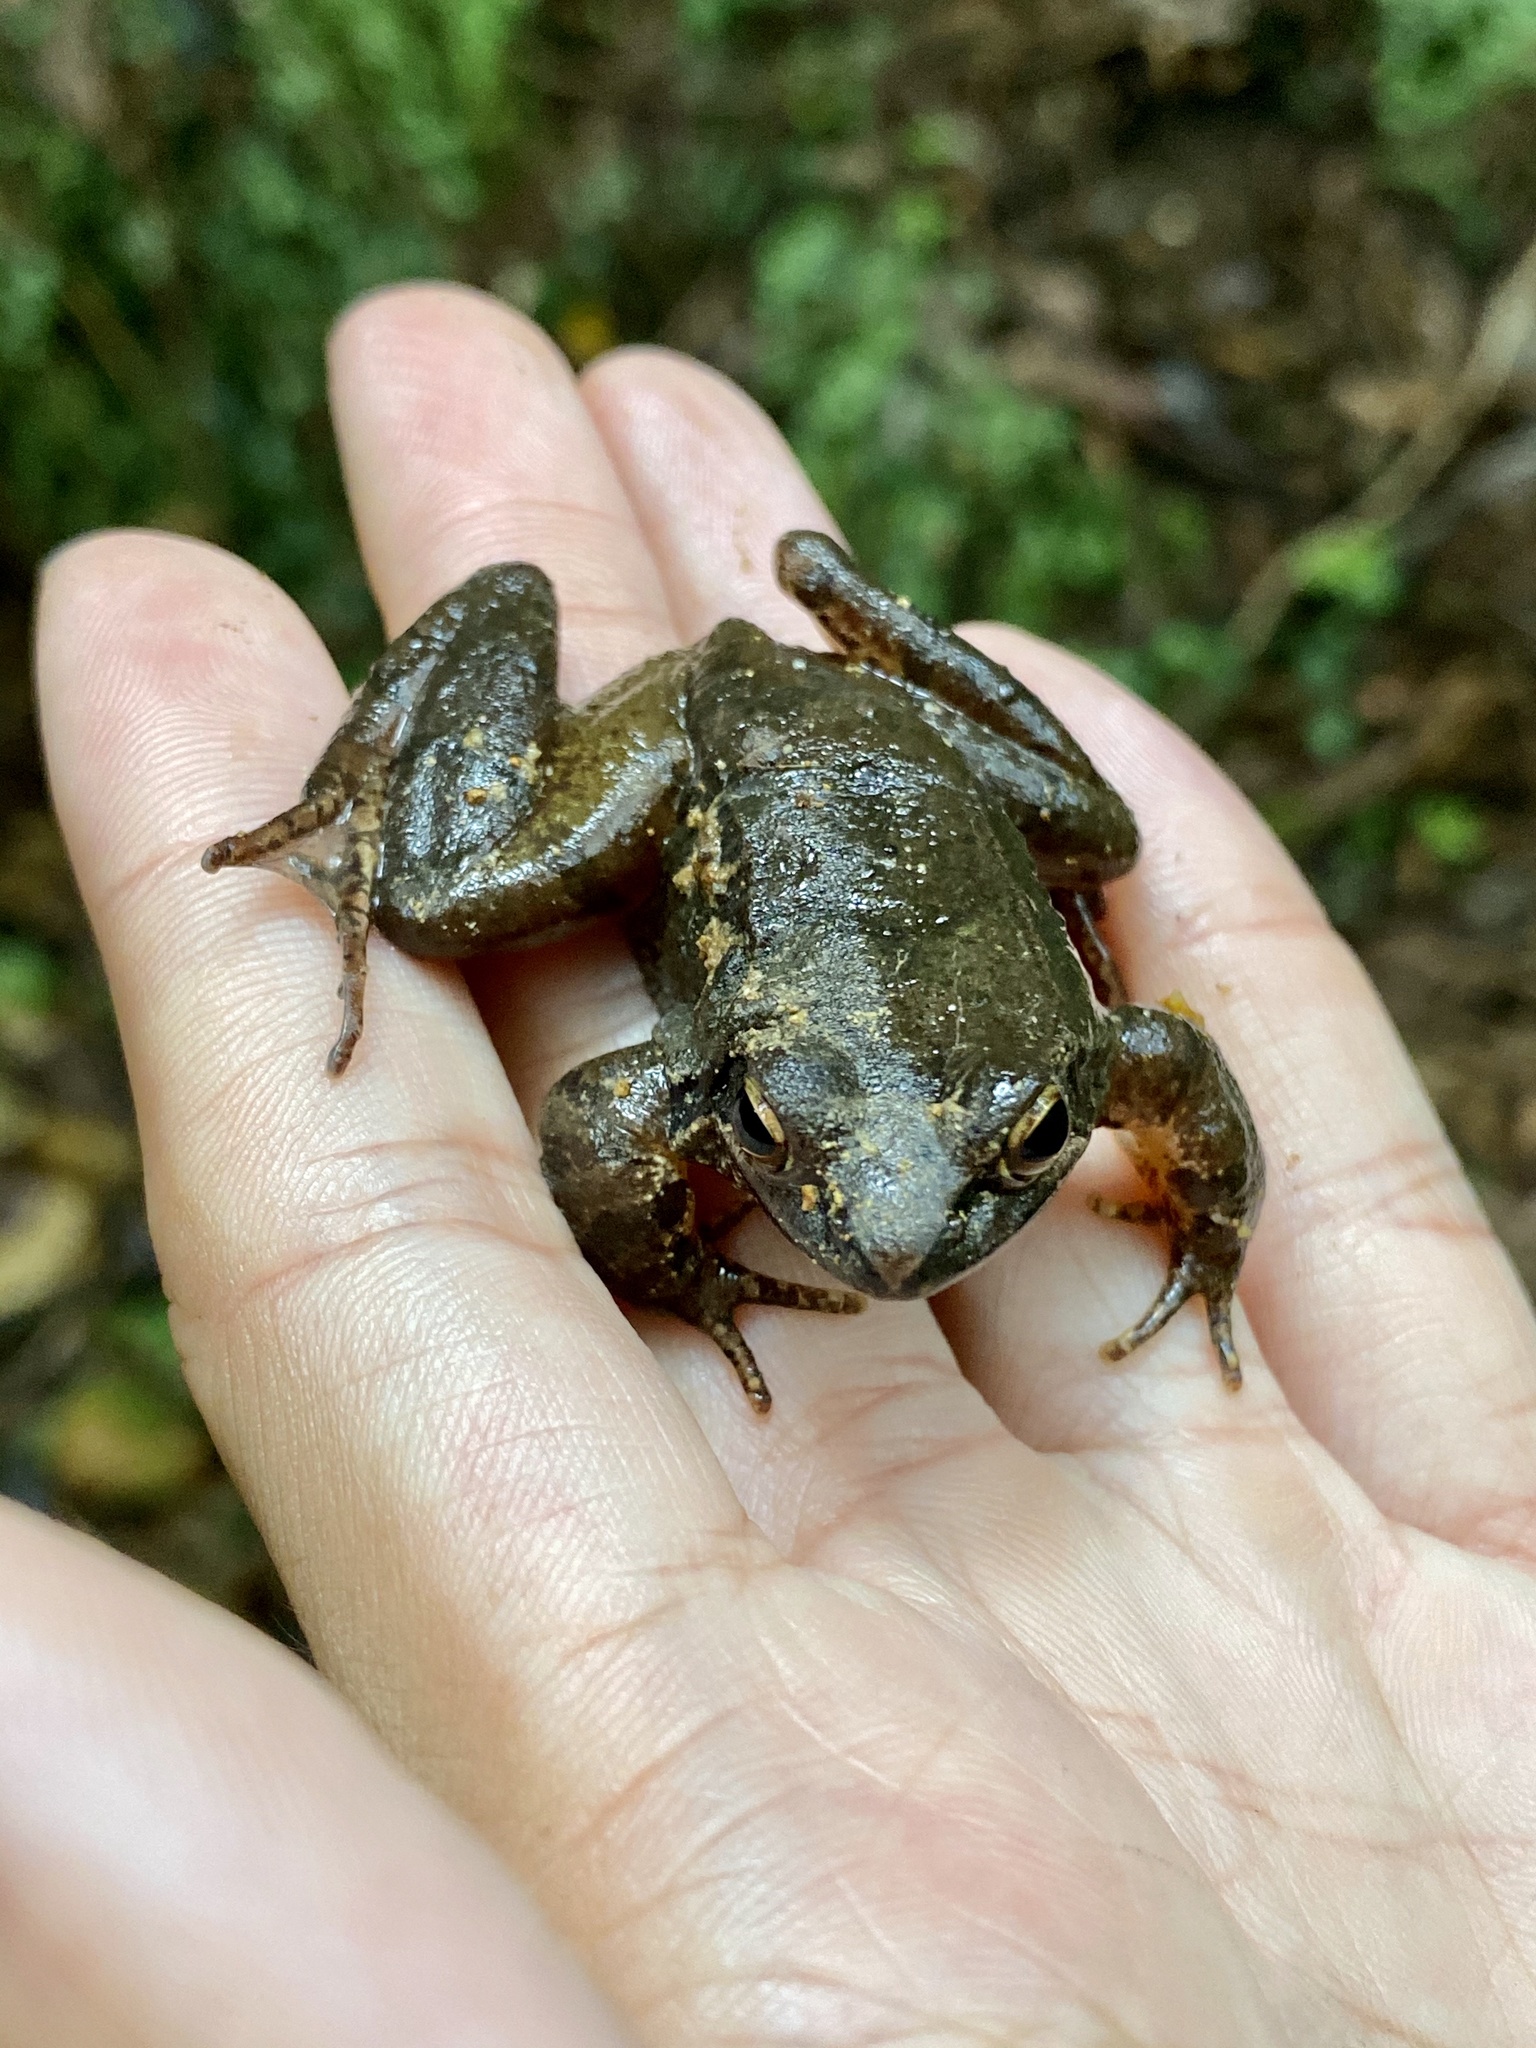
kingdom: Animalia
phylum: Chordata
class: Amphibia
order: Anura
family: Ranidae
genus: Rana
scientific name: Rana tagoi
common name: Tago's brown frog
